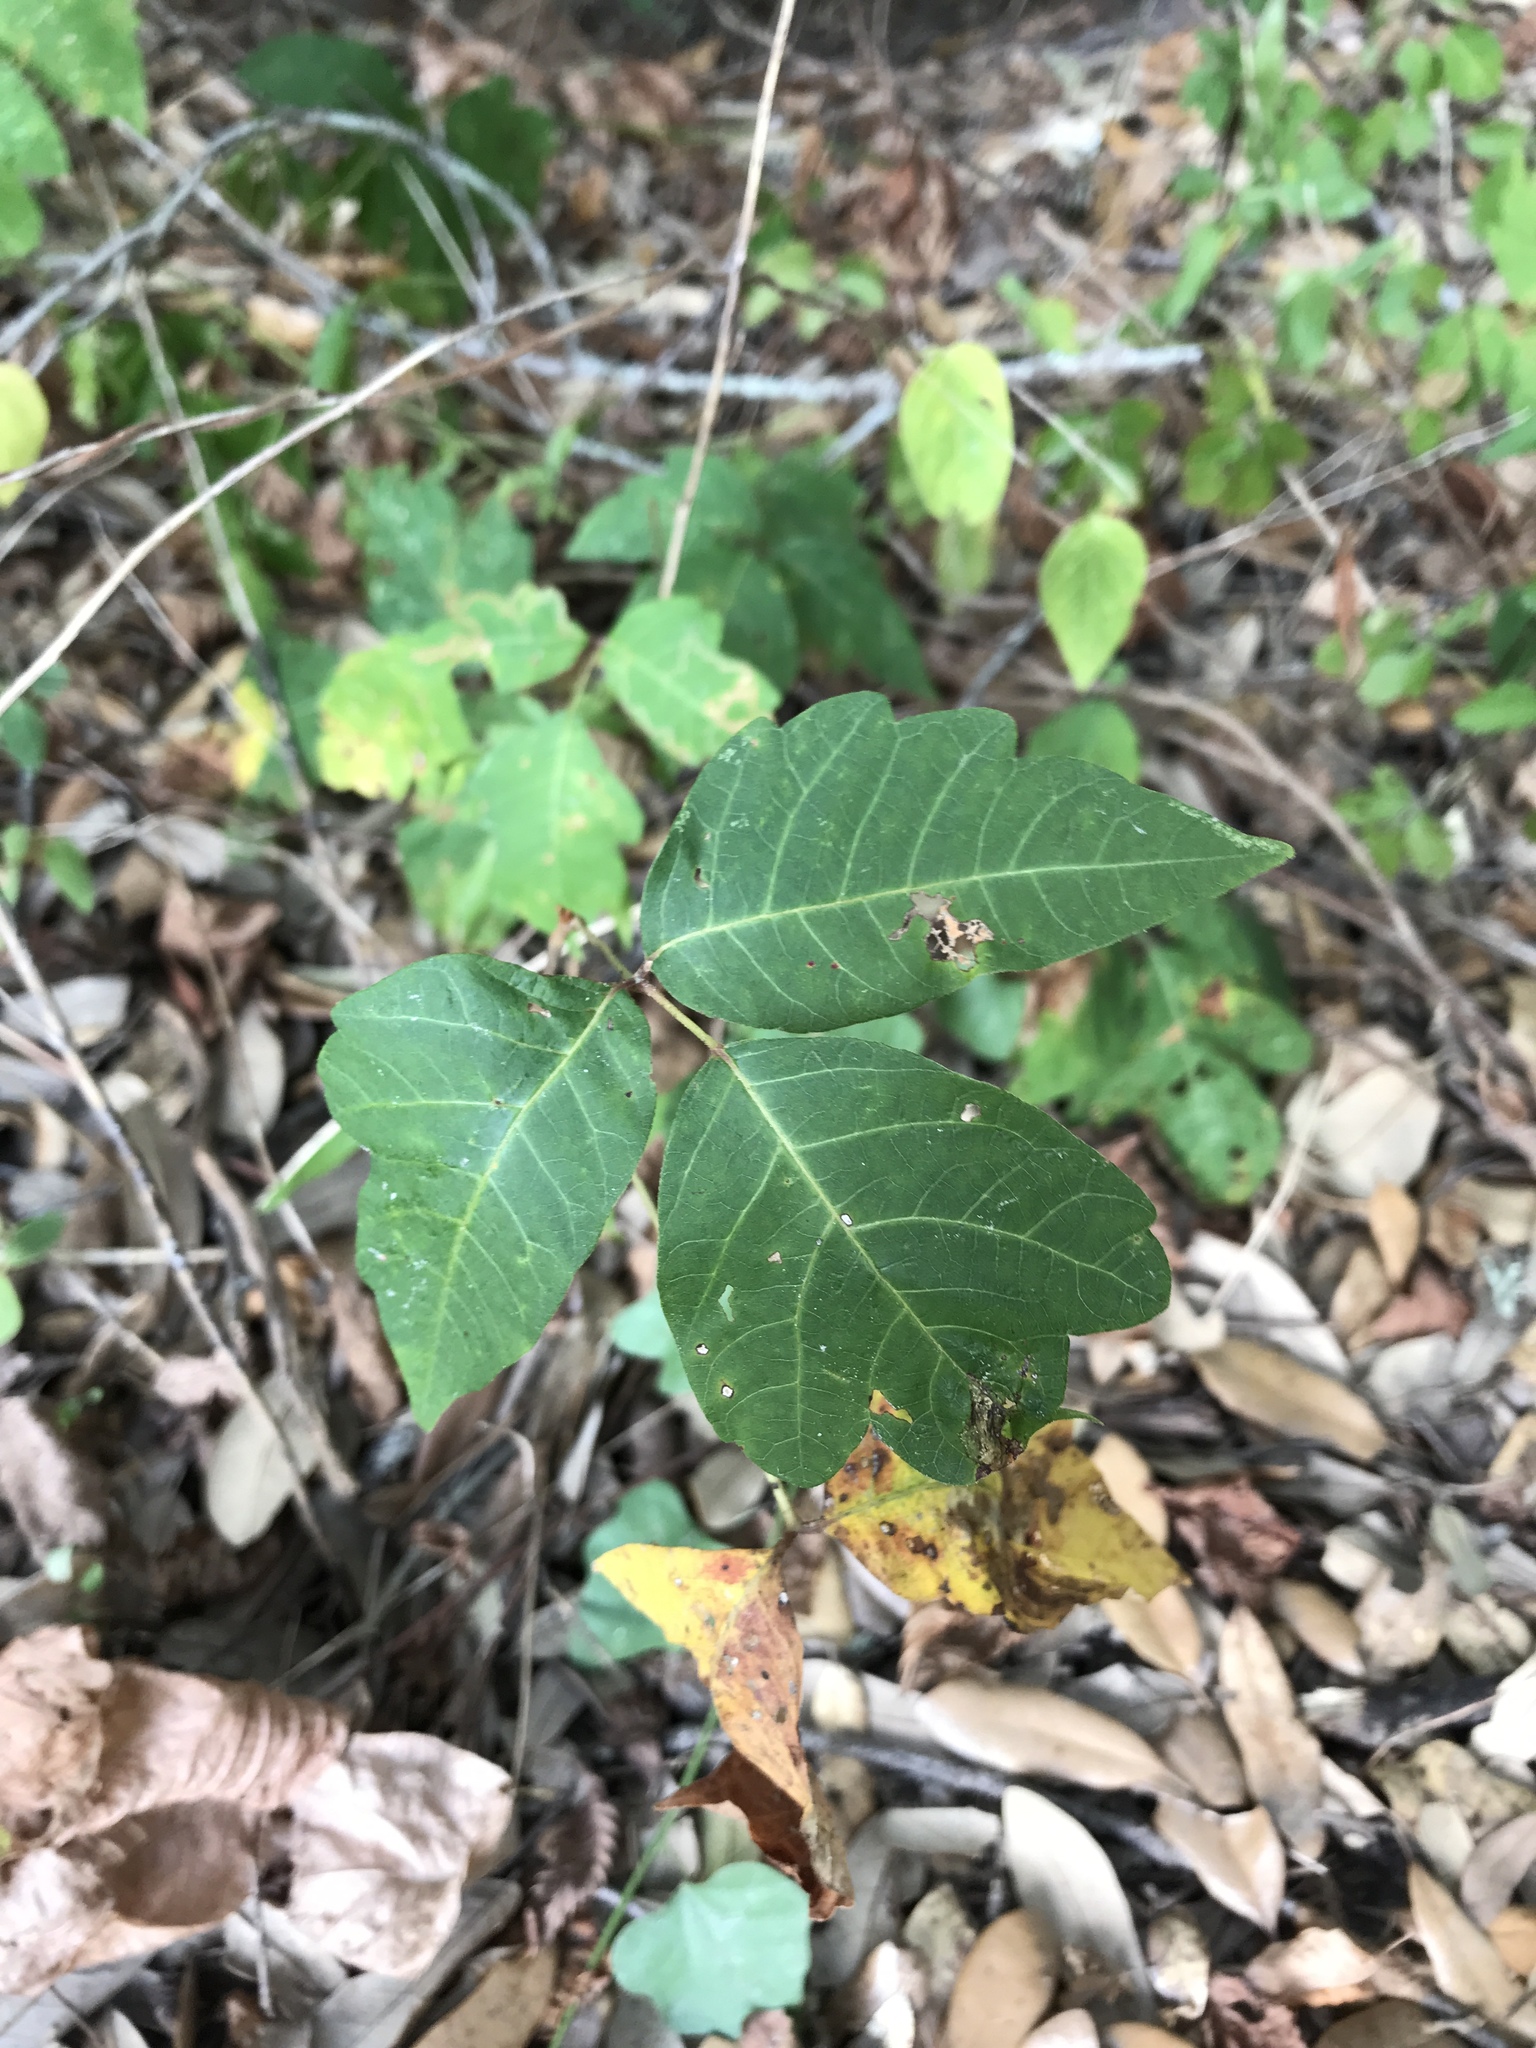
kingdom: Plantae
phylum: Tracheophyta
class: Magnoliopsida
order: Sapindales
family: Anacardiaceae
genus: Toxicodendron
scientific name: Toxicodendron radicans
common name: Poison ivy
